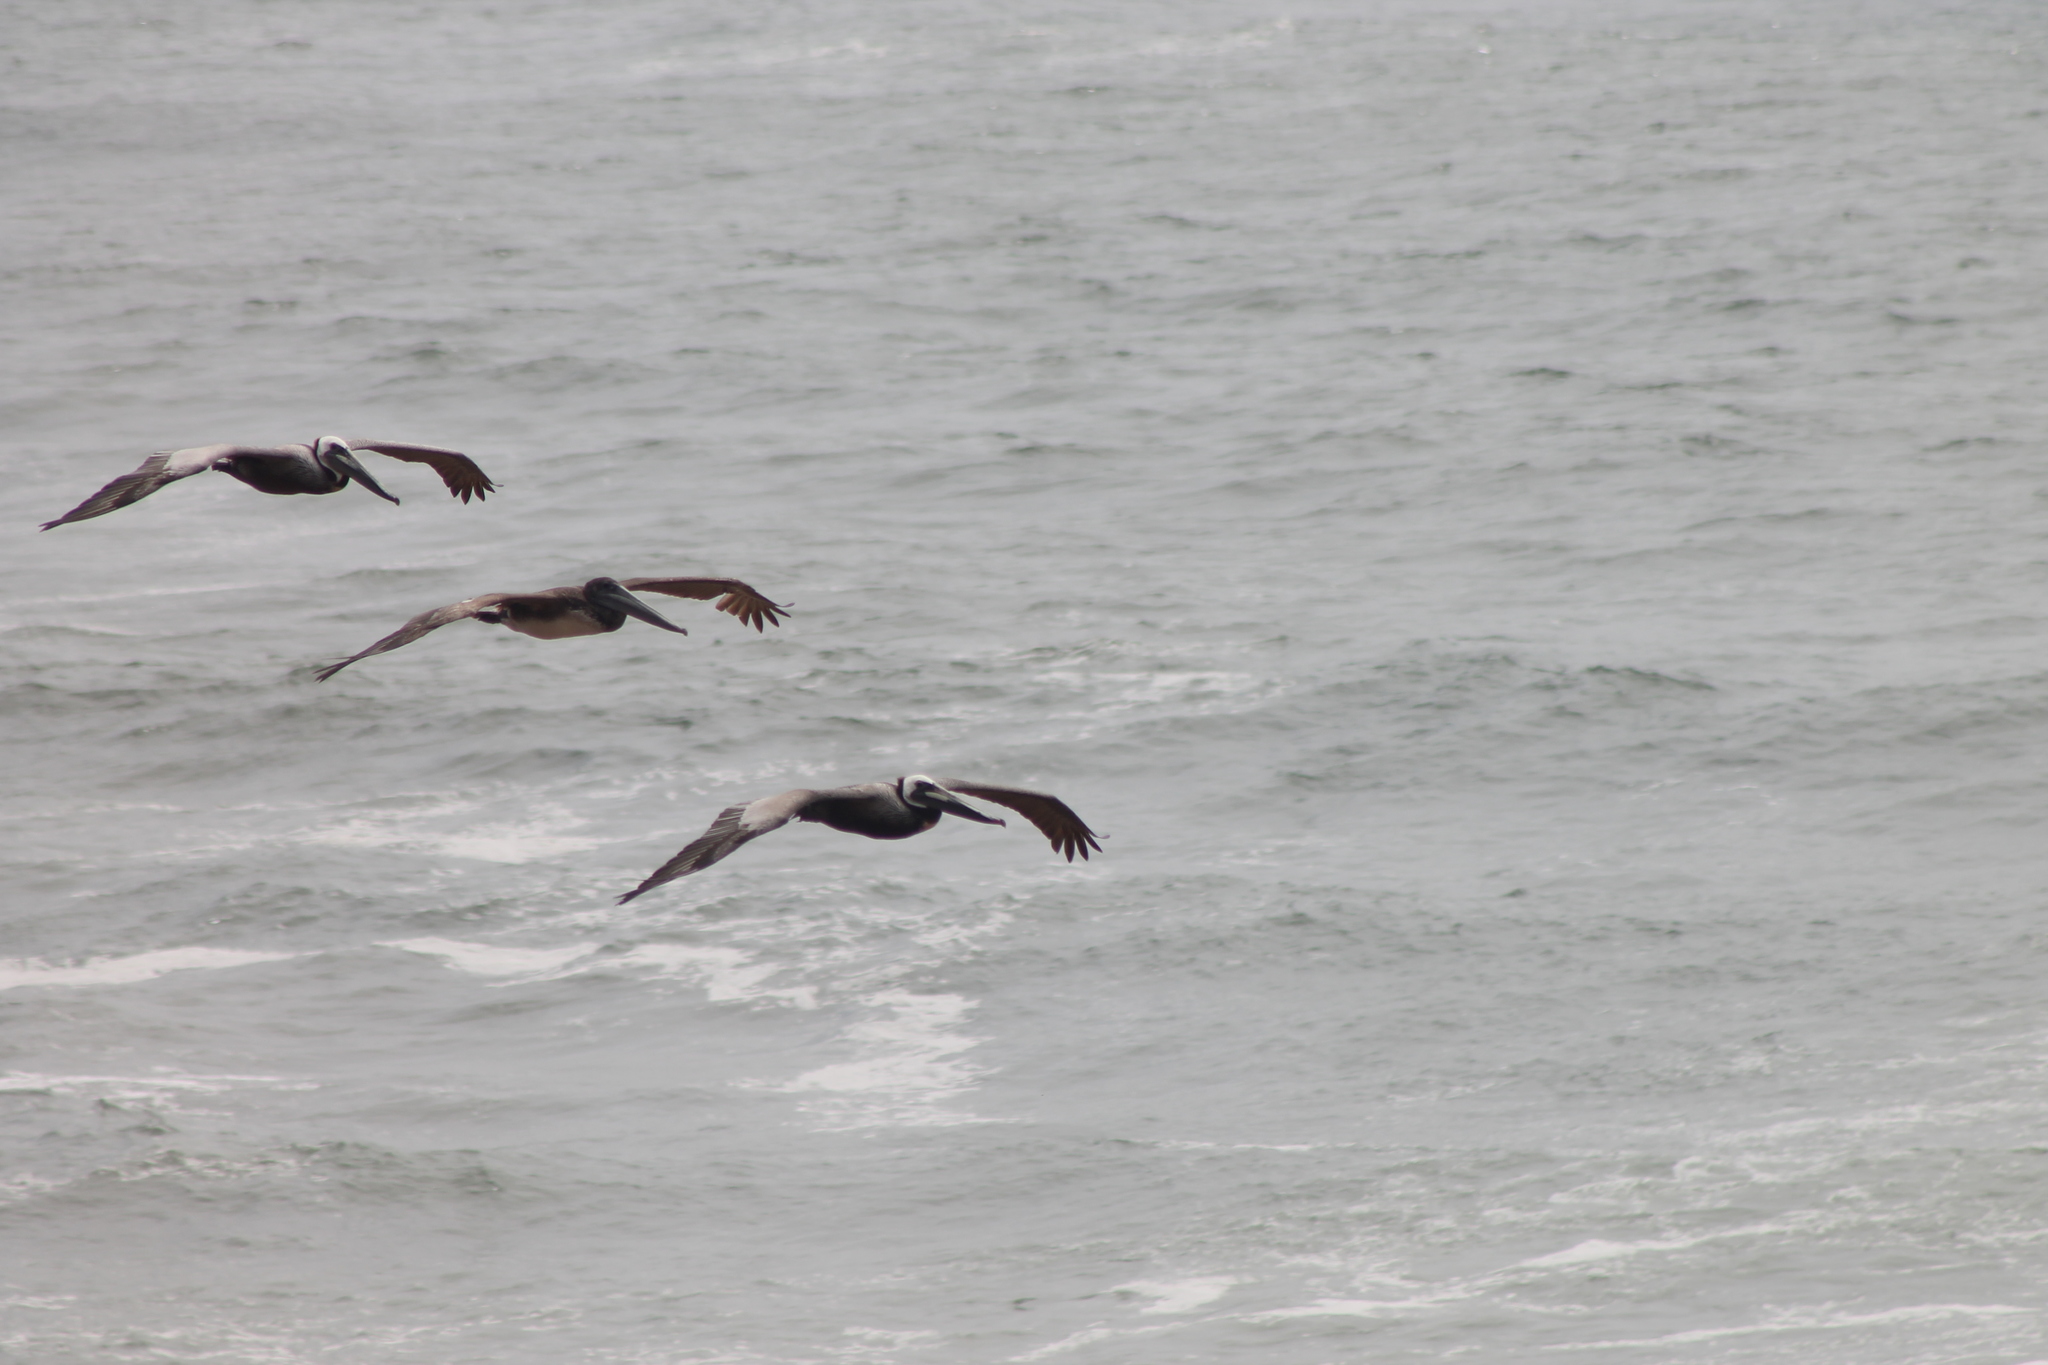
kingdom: Animalia
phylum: Chordata
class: Aves
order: Pelecaniformes
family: Pelecanidae
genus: Pelecanus
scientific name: Pelecanus occidentalis
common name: Brown pelican
